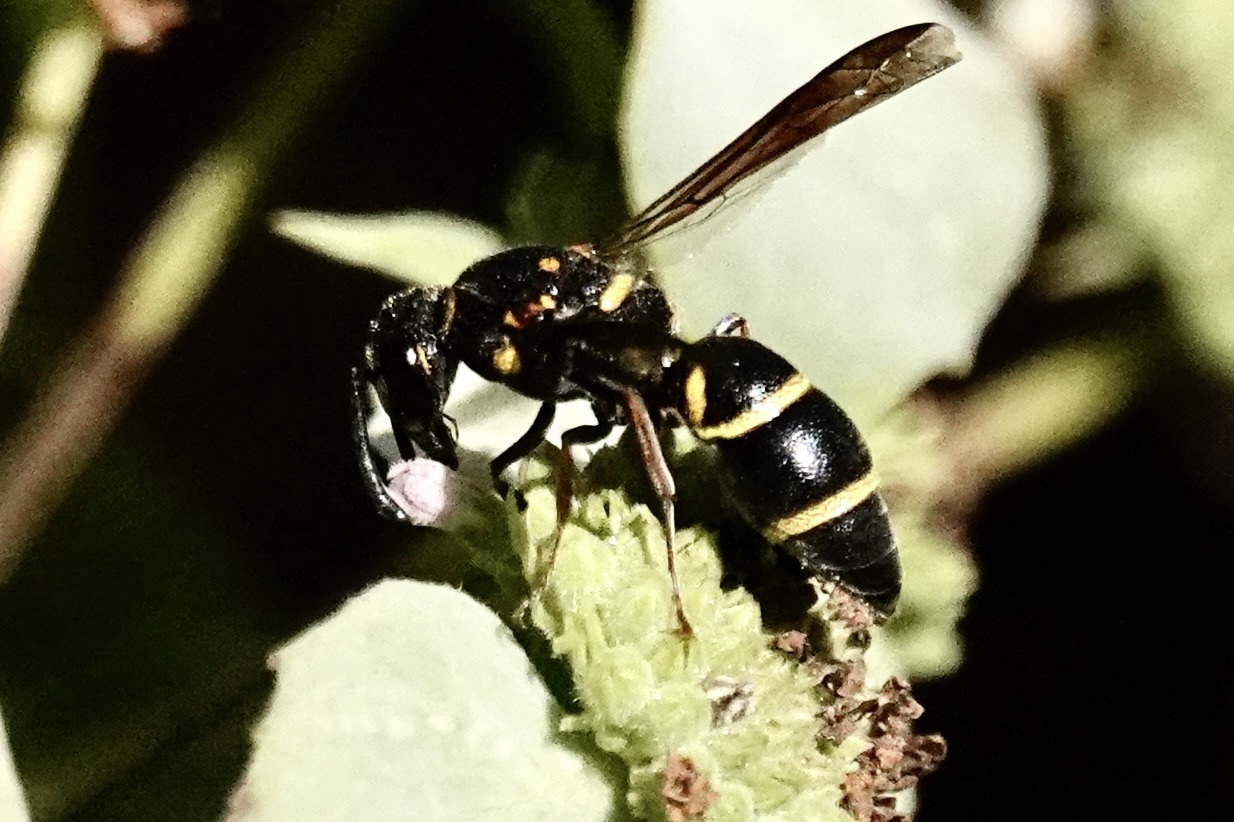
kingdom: Animalia
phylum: Arthropoda
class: Insecta
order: Hymenoptera
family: Eumenidae
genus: Parancistrocerus
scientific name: Parancistrocerus fulvipes
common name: Potter wasp
